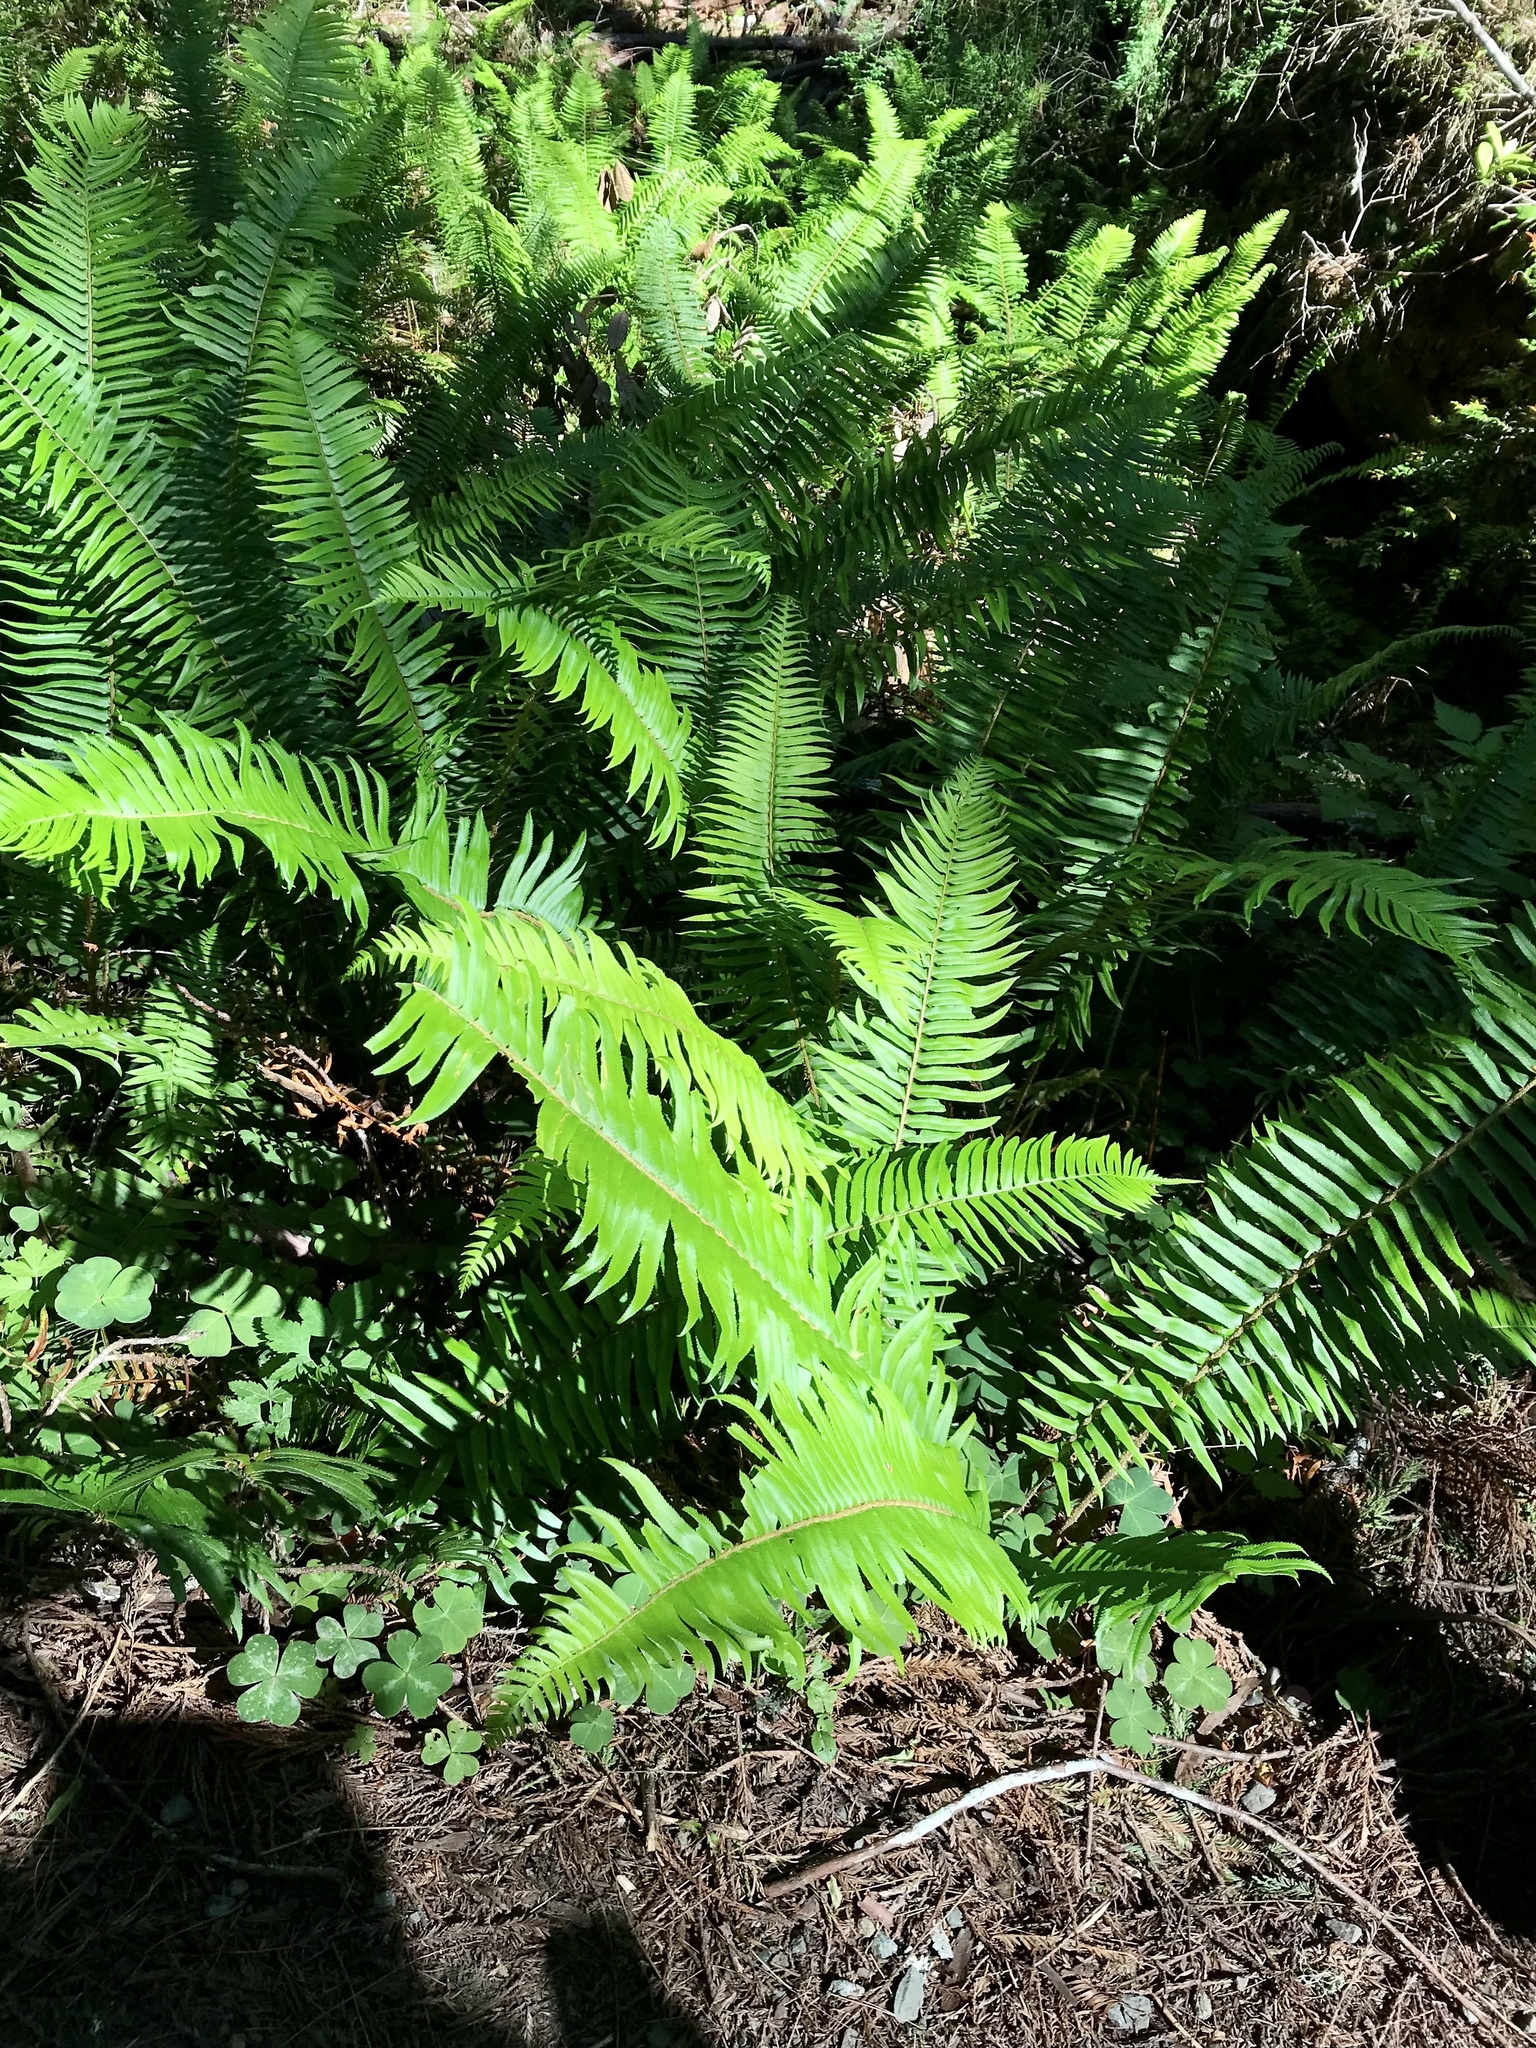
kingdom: Plantae
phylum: Tracheophyta
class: Polypodiopsida
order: Polypodiales
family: Dryopteridaceae
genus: Polystichum
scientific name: Polystichum munitum
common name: Western sword-fern
